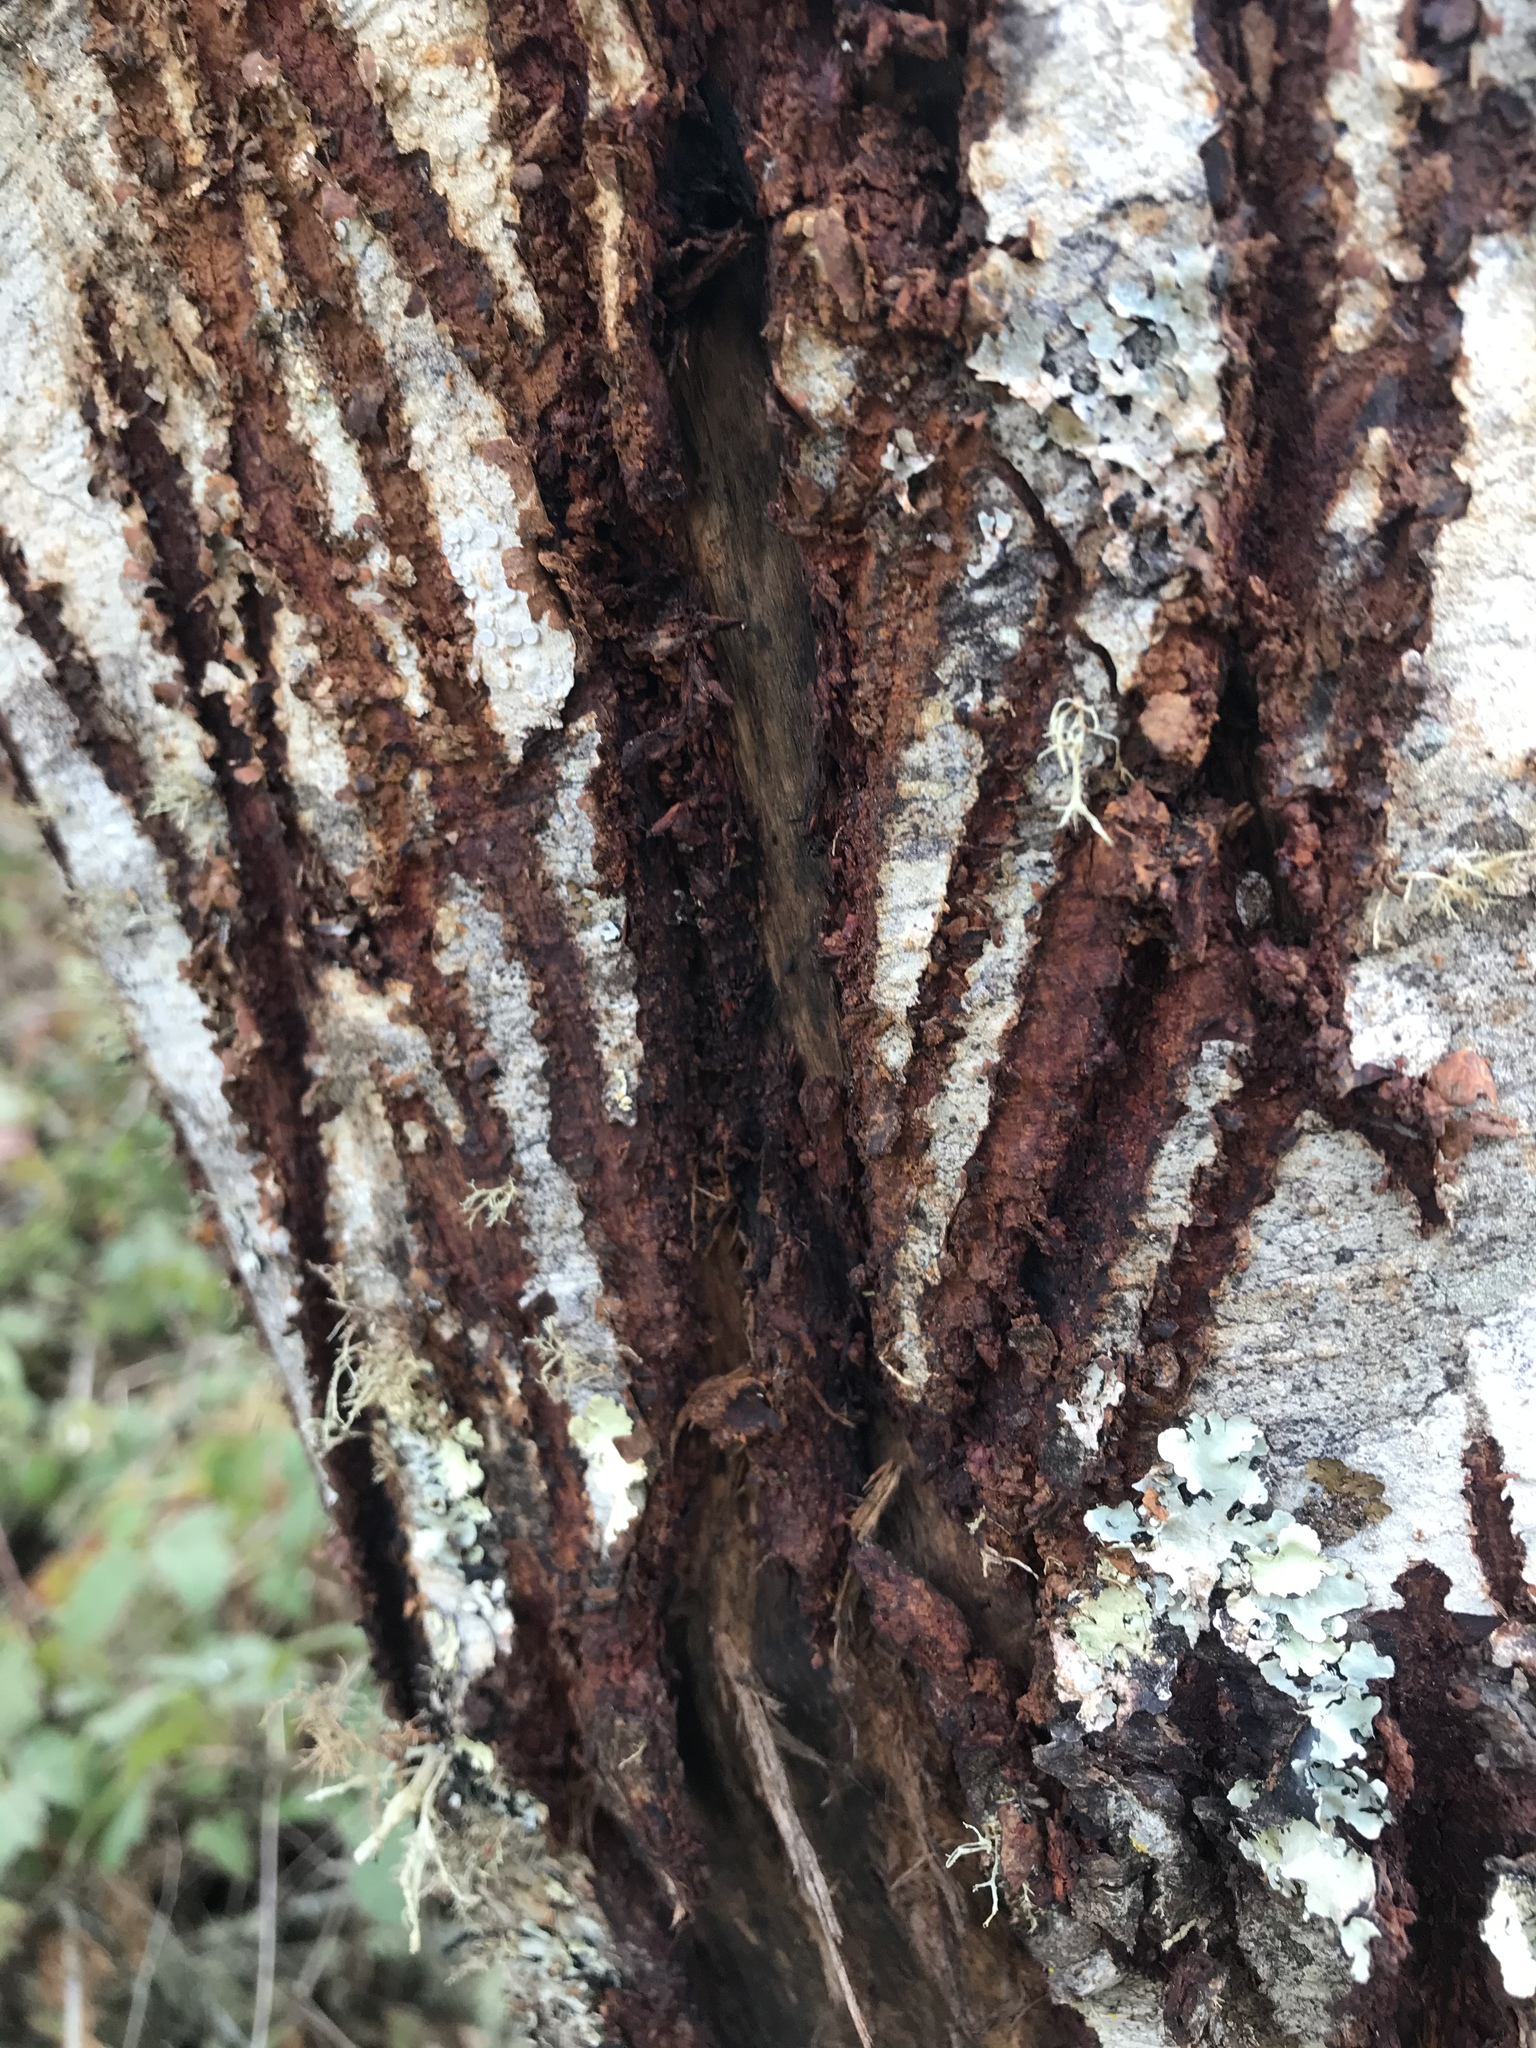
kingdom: Animalia
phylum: Chordata
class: Mammalia
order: Artiodactyla
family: Cervidae
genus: Cervus
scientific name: Cervus elaphus
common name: Red deer
